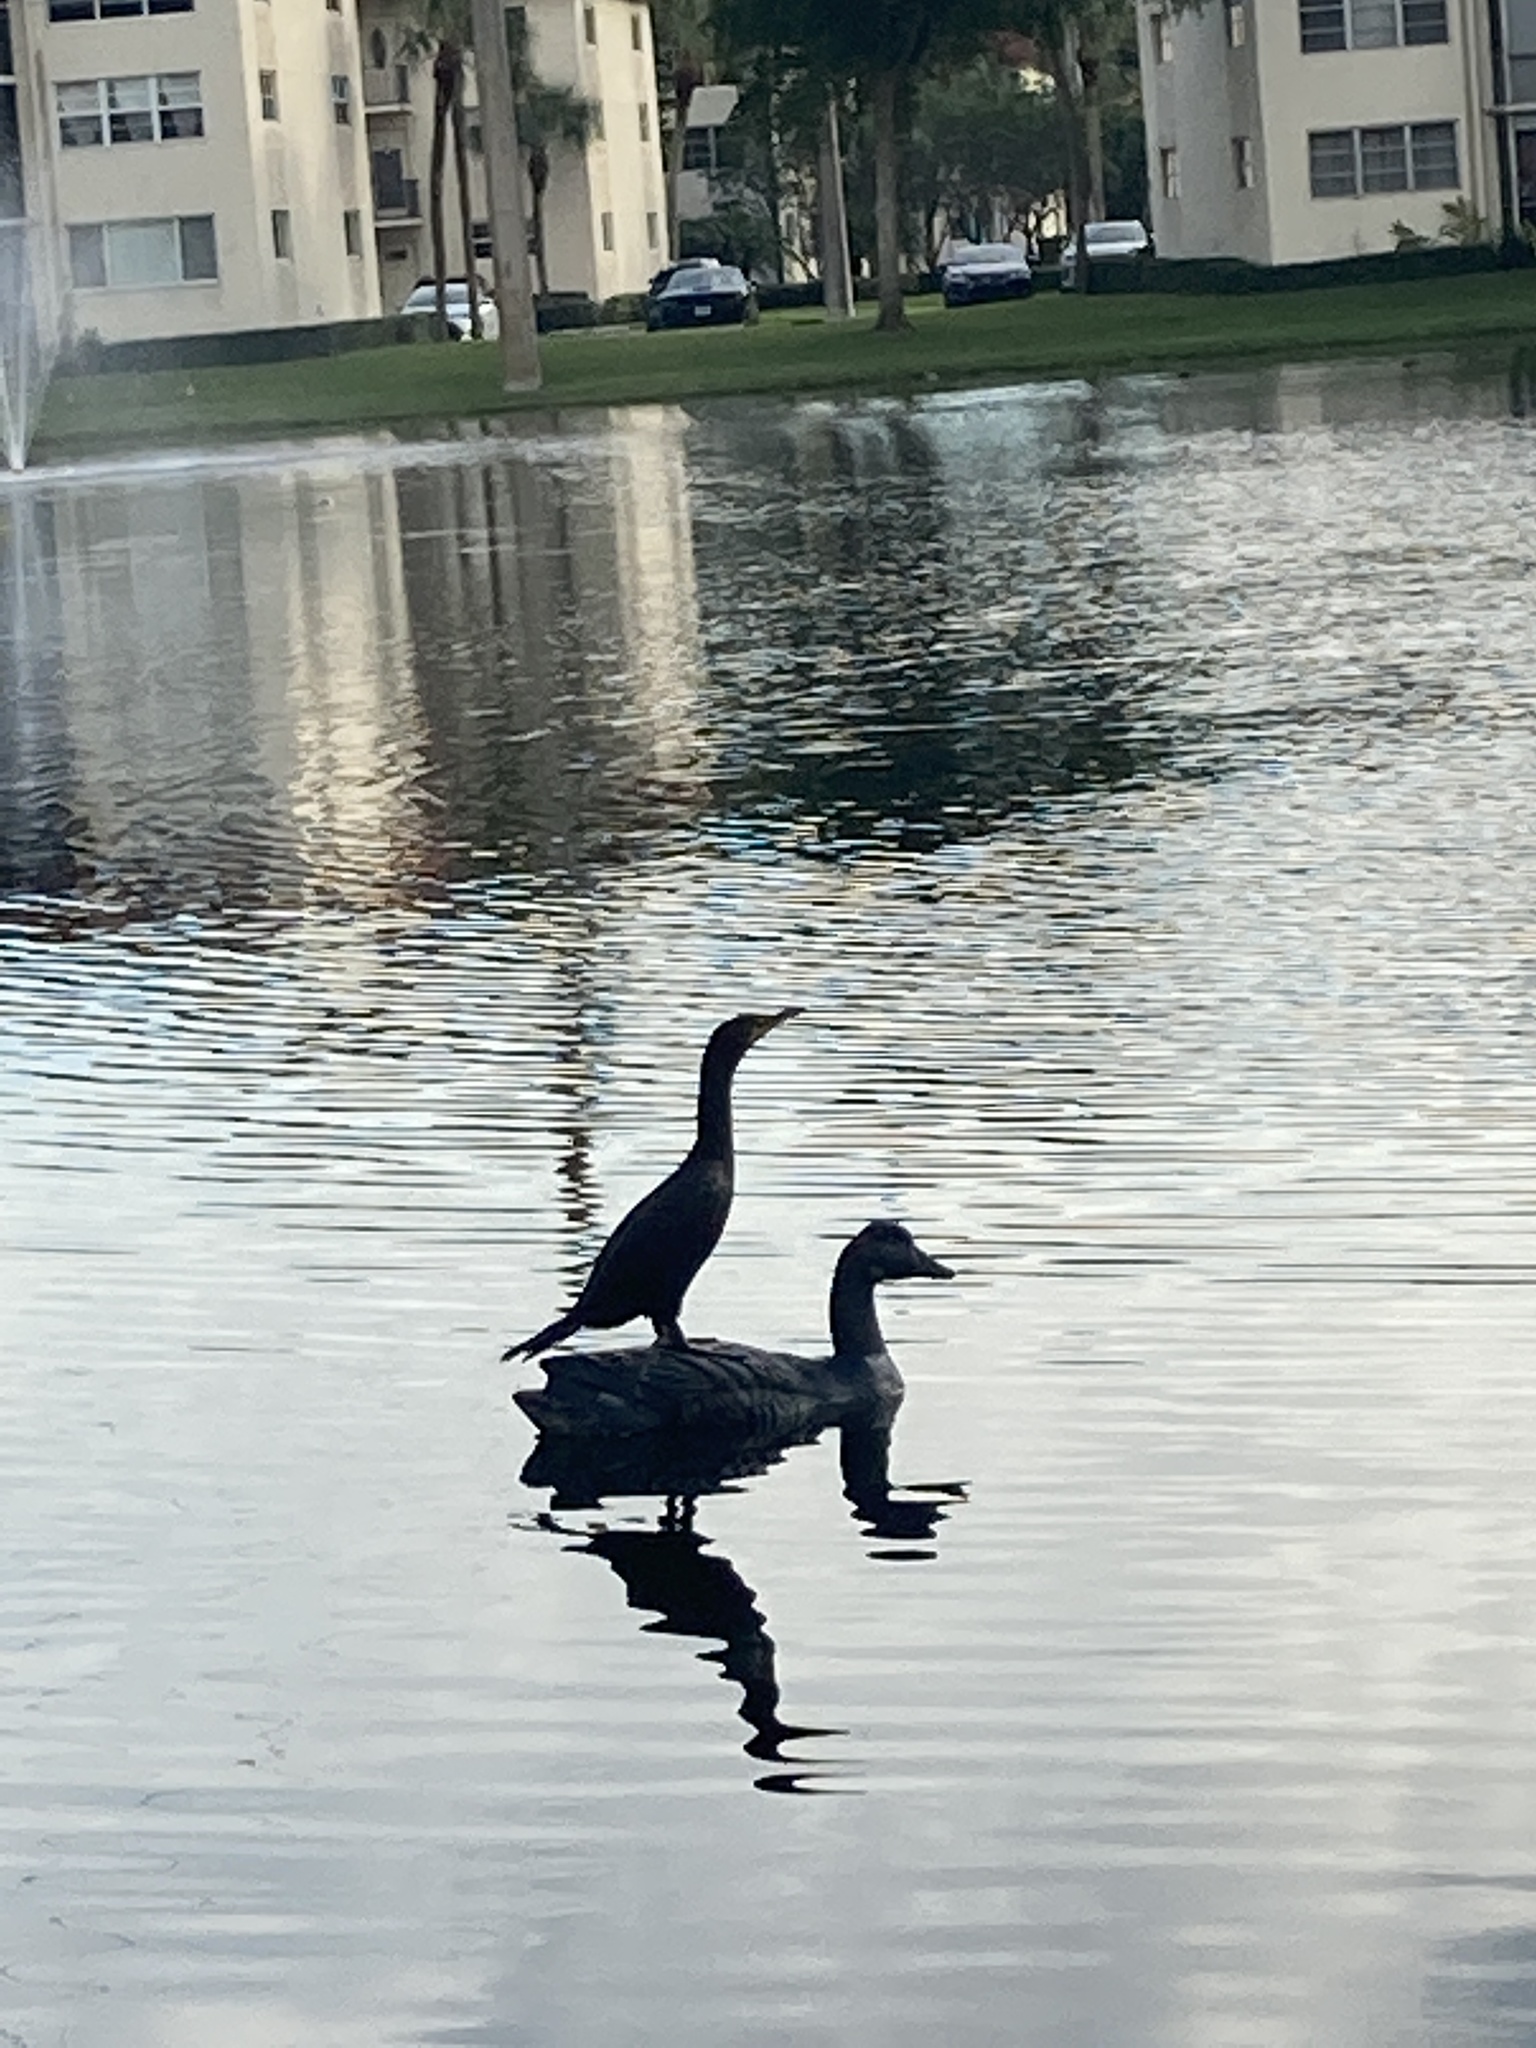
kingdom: Animalia
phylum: Chordata
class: Aves
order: Suliformes
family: Phalacrocoracidae
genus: Phalacrocorax
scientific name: Phalacrocorax auritus
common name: Double-crested cormorant
